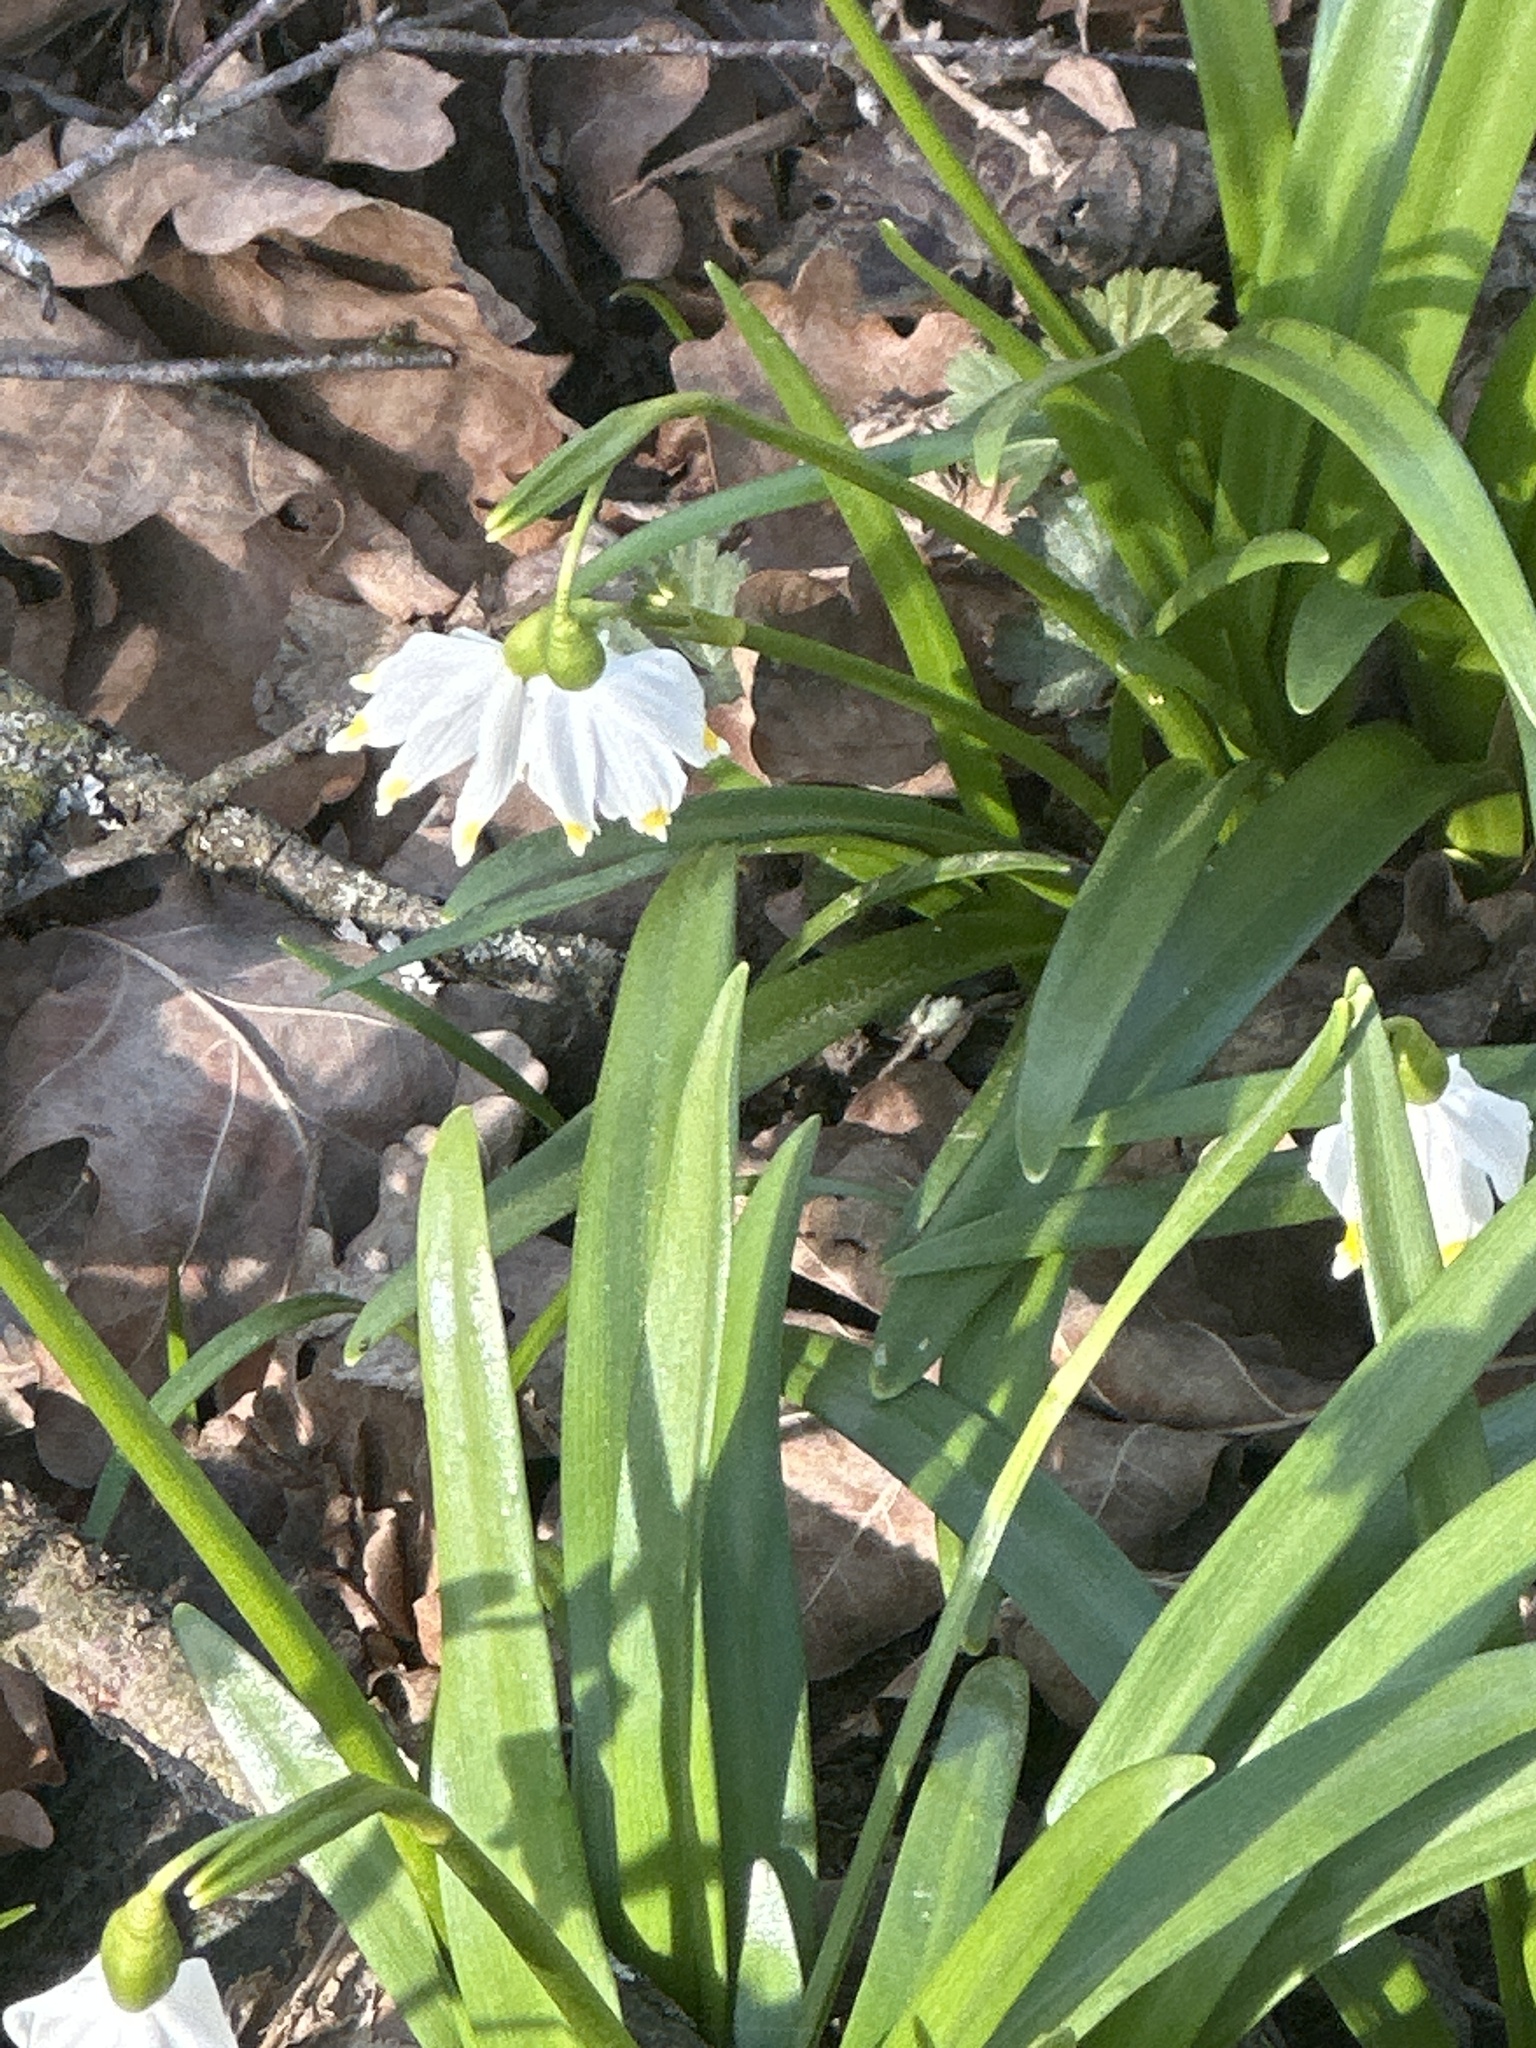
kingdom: Plantae
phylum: Tracheophyta
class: Liliopsida
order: Asparagales
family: Amaryllidaceae
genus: Leucojum
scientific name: Leucojum vernum
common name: Spring snowflake
